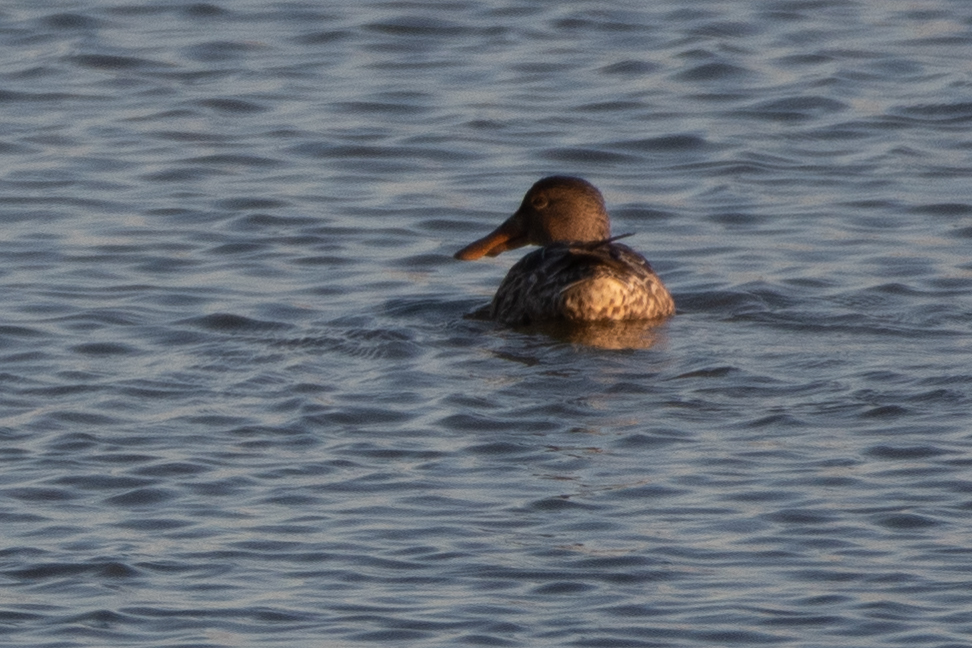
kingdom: Animalia
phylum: Chordata
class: Aves
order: Anseriformes
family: Anatidae
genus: Spatula
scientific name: Spatula clypeata
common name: Northern shoveler
